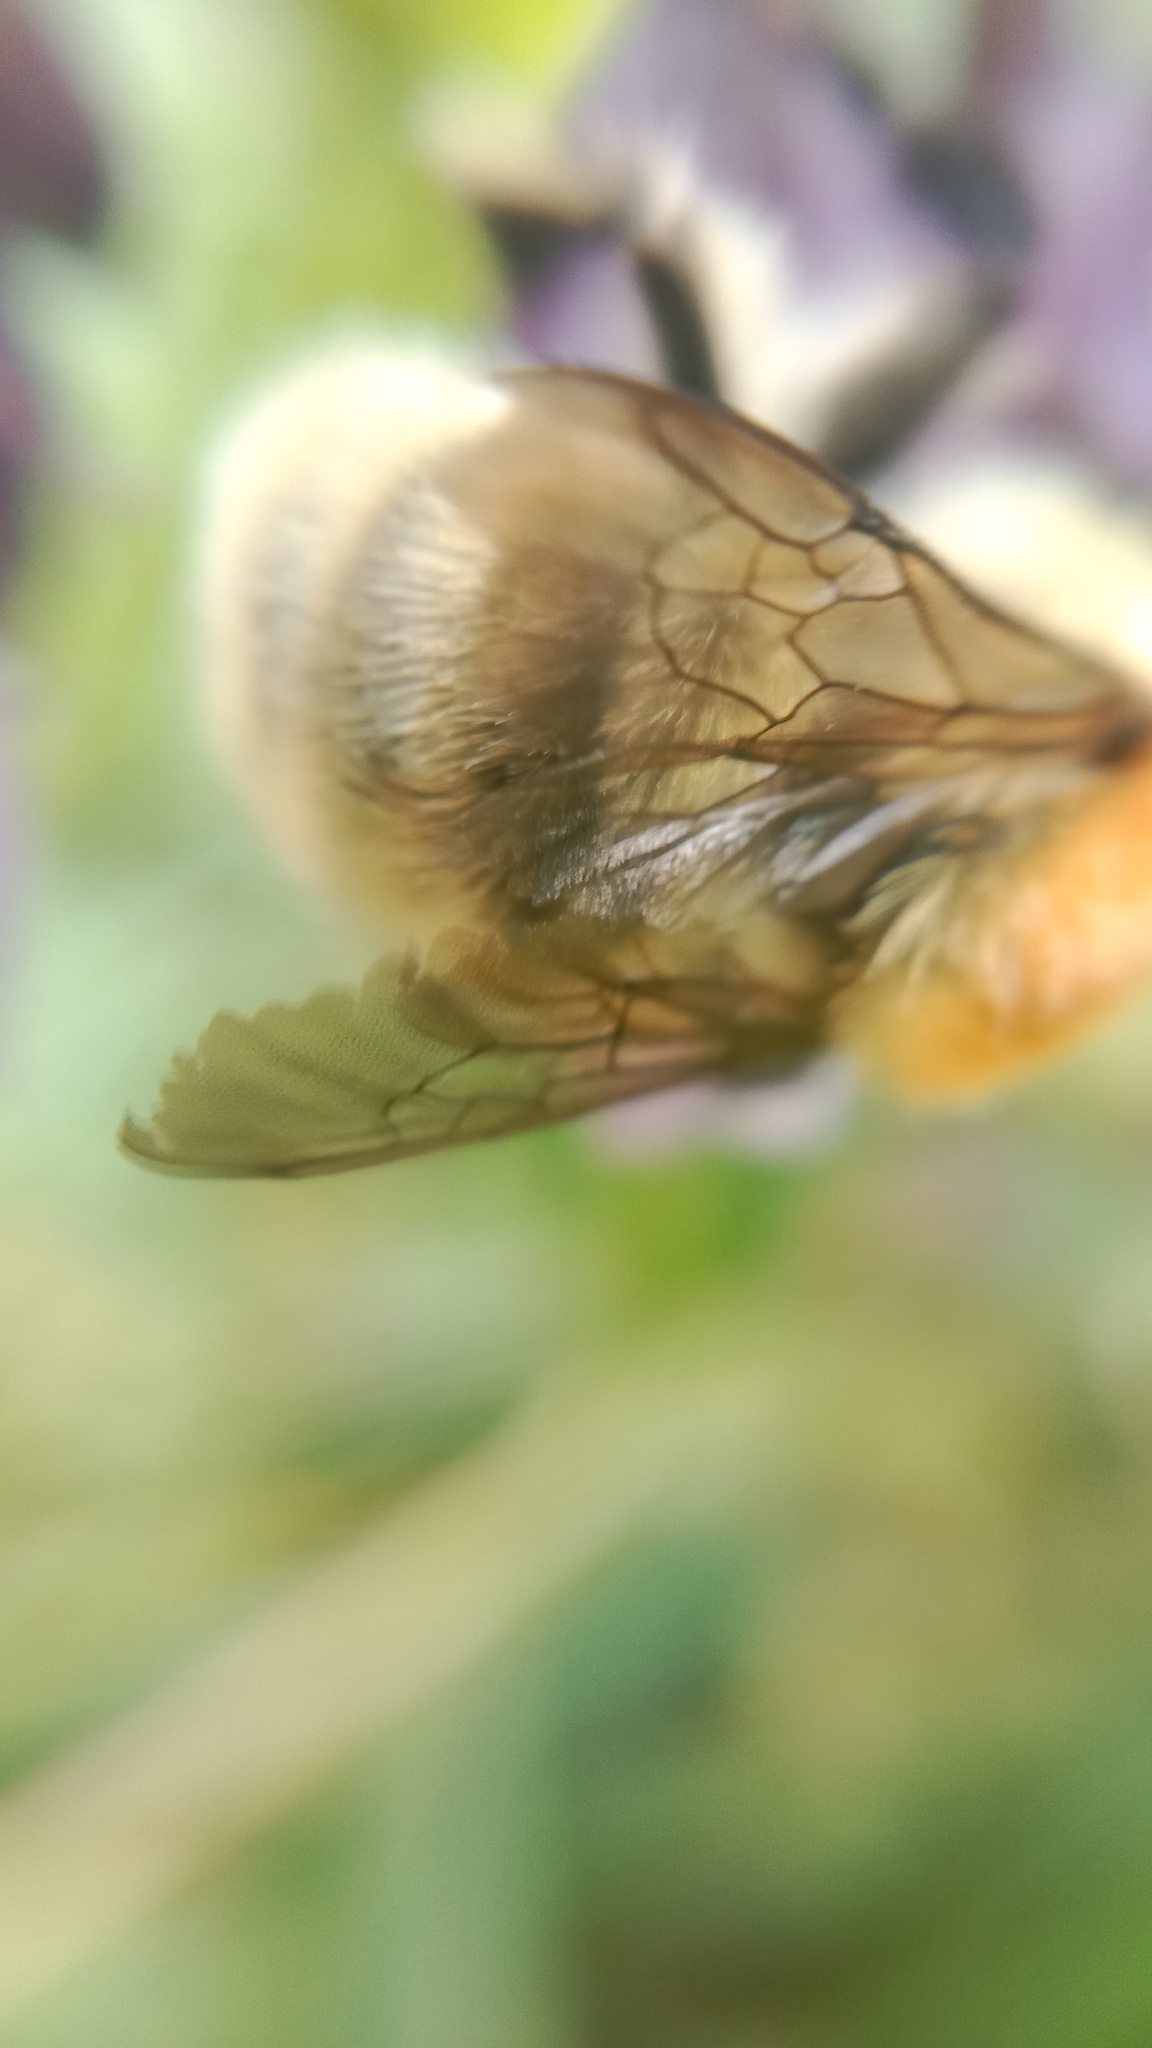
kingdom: Animalia
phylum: Arthropoda
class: Insecta
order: Hymenoptera
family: Apidae
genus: Bombus
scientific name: Bombus muscorum
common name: Moss carder-bee
